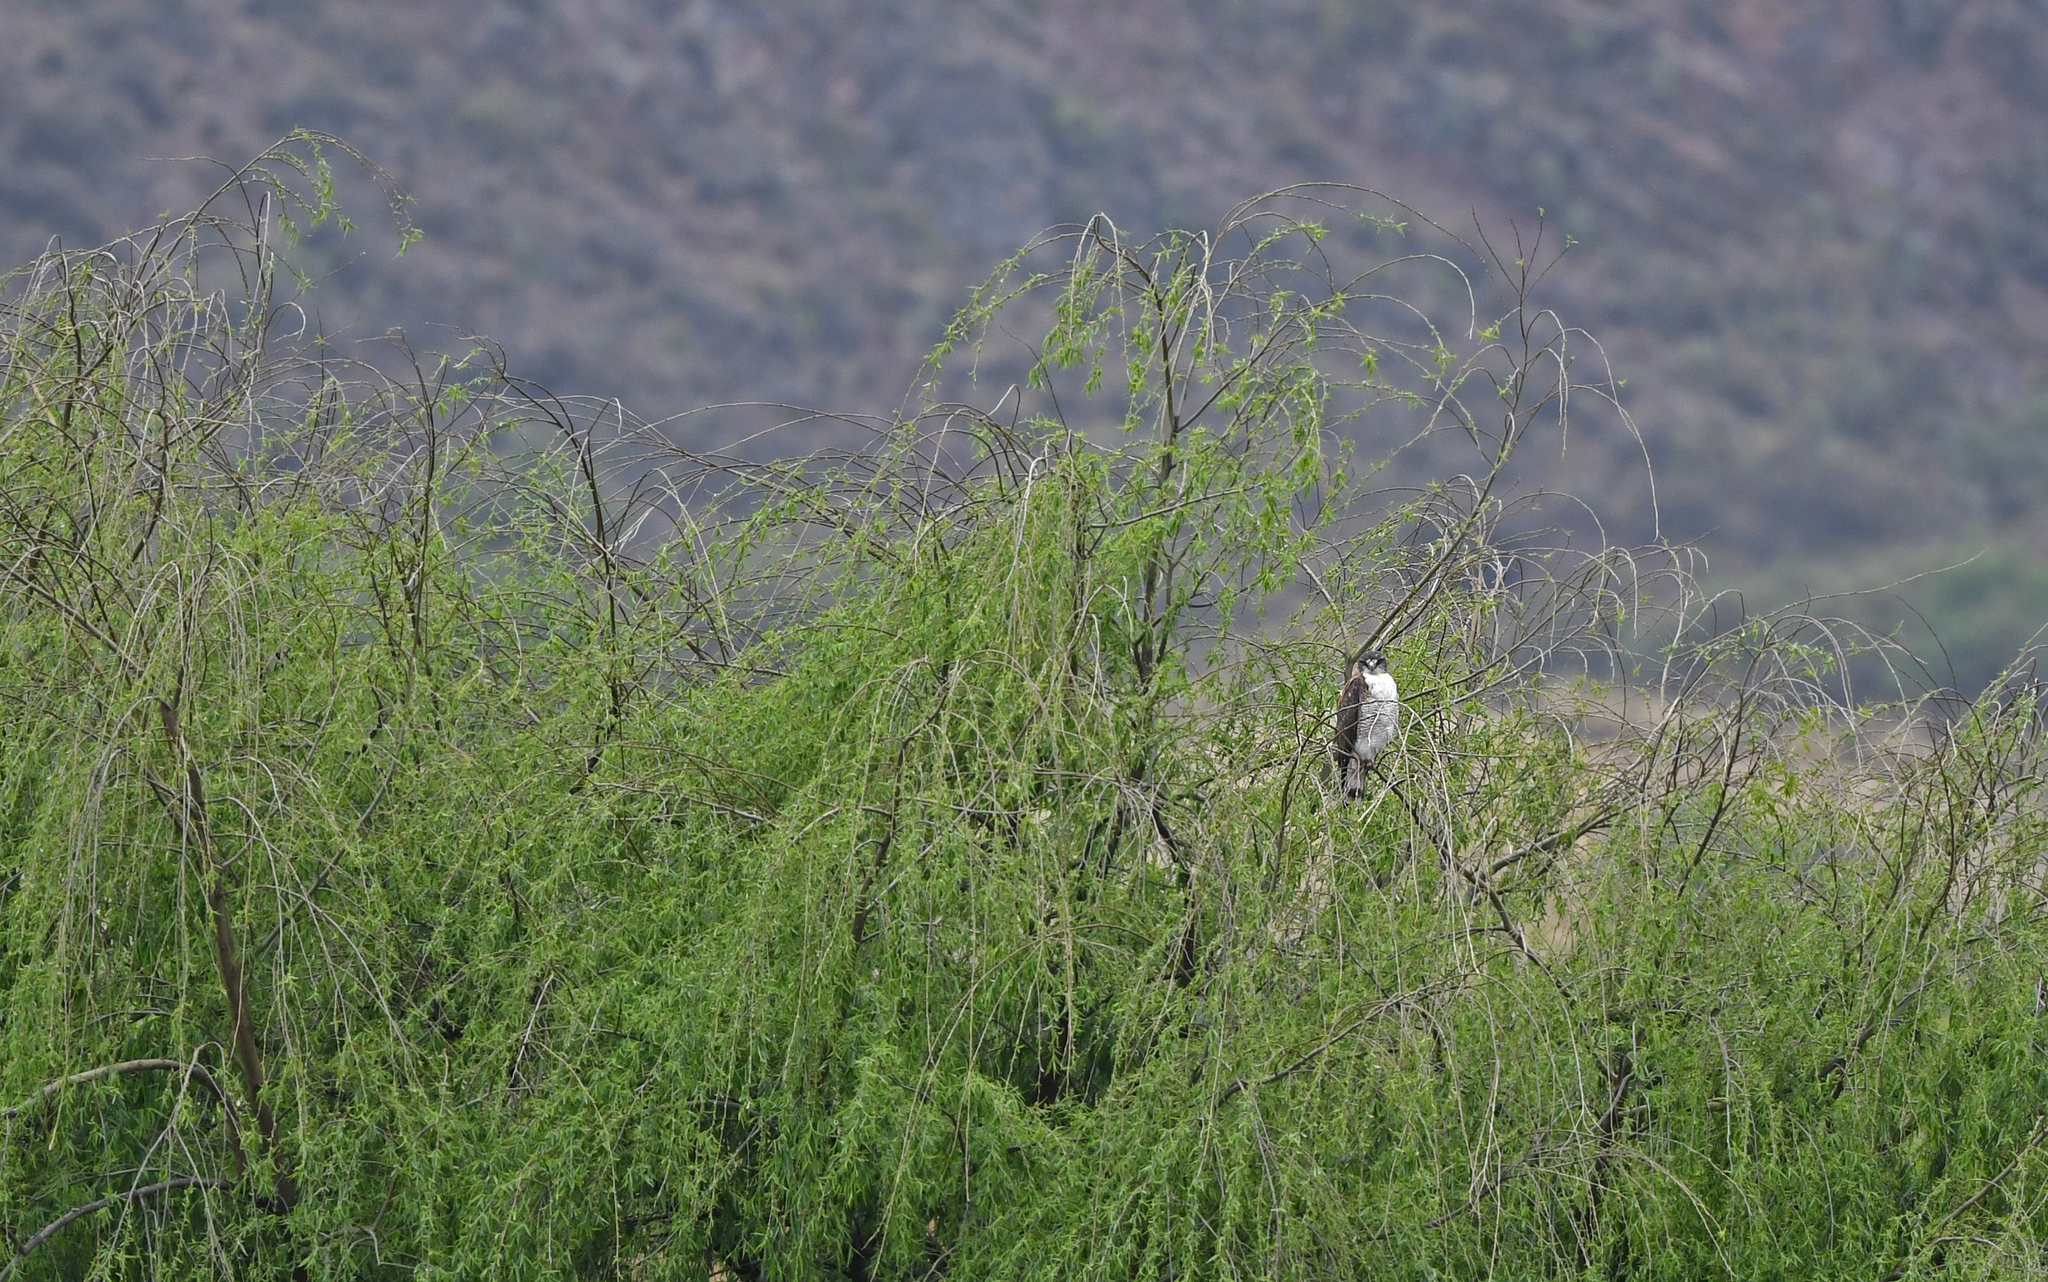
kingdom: Animalia
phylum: Chordata
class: Aves
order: Accipitriformes
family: Accipitridae
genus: Buteo
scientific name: Buteo polyosoma
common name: Variable hawk
